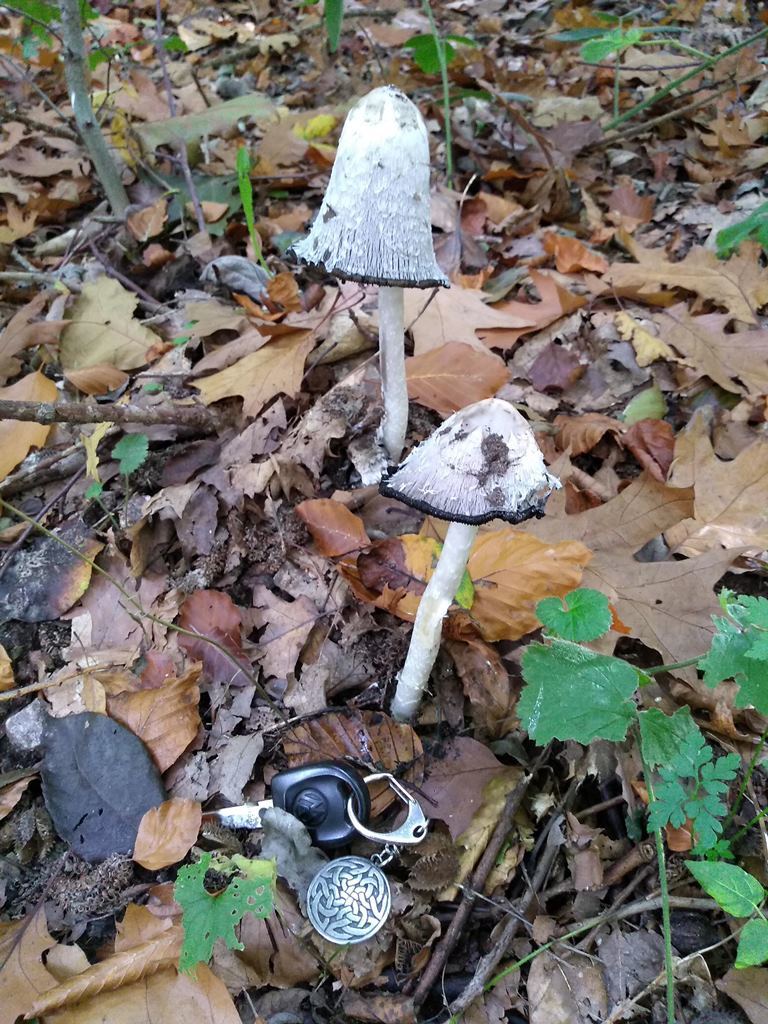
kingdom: Fungi
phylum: Basidiomycota
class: Agaricomycetes
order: Agaricales
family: Agaricaceae
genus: Coprinus
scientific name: Coprinus comatus
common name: Lawyer's wig
